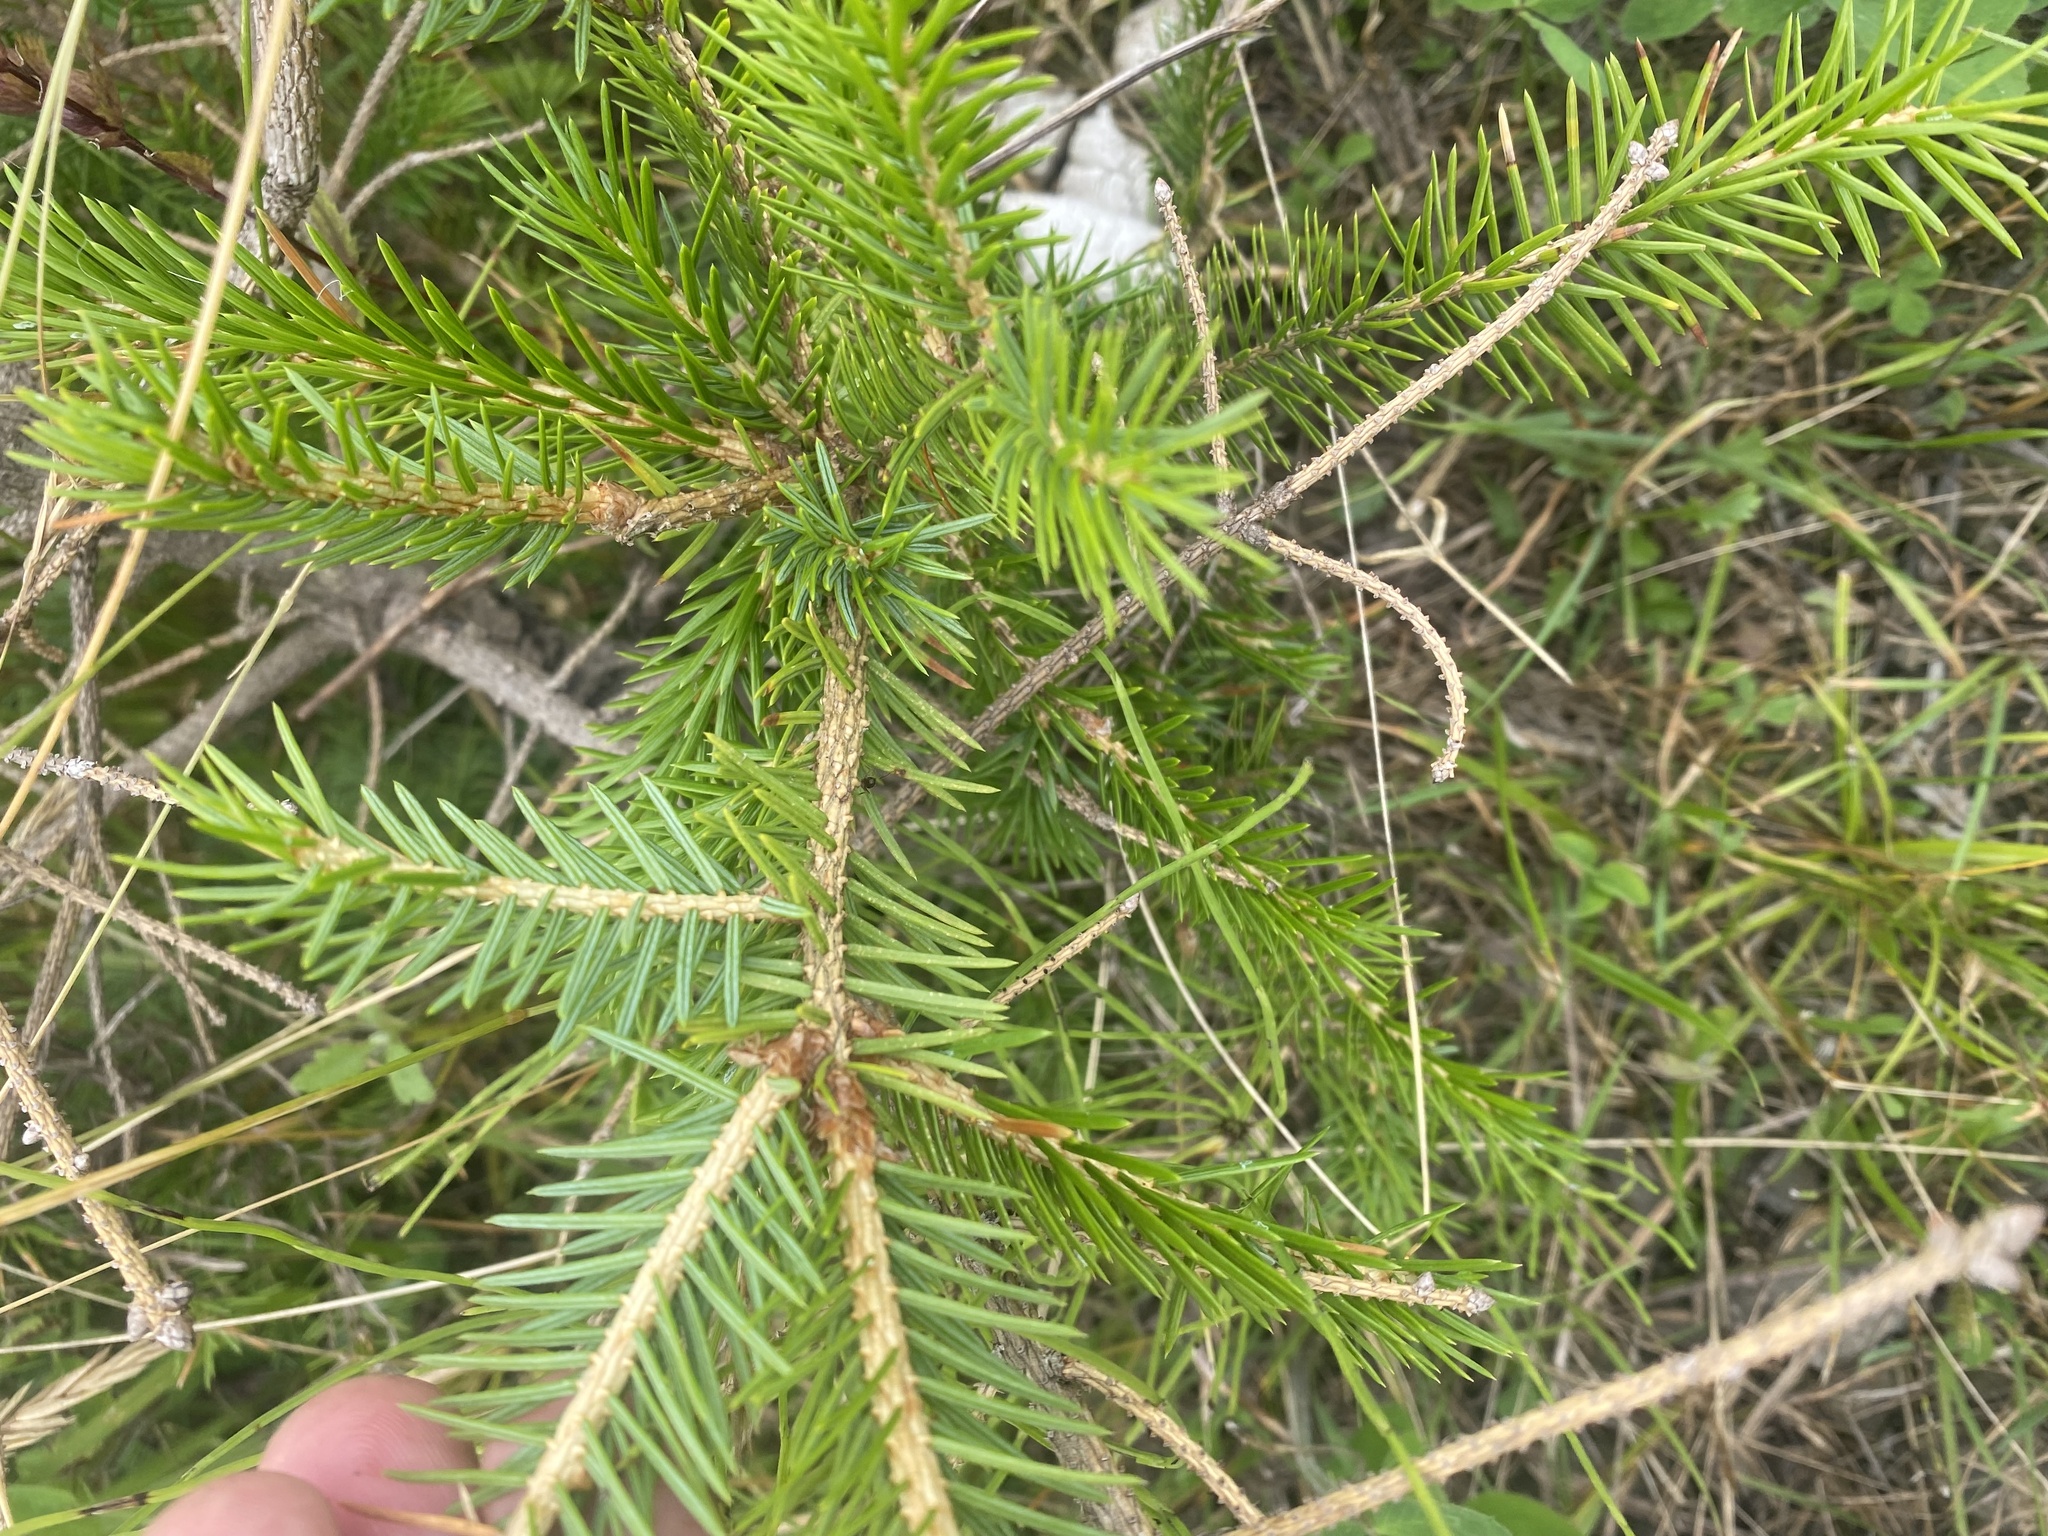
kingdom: Plantae
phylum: Tracheophyta
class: Pinopsida
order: Pinales
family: Pinaceae
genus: Picea
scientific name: Picea jezoensis
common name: Yeddo spruce
